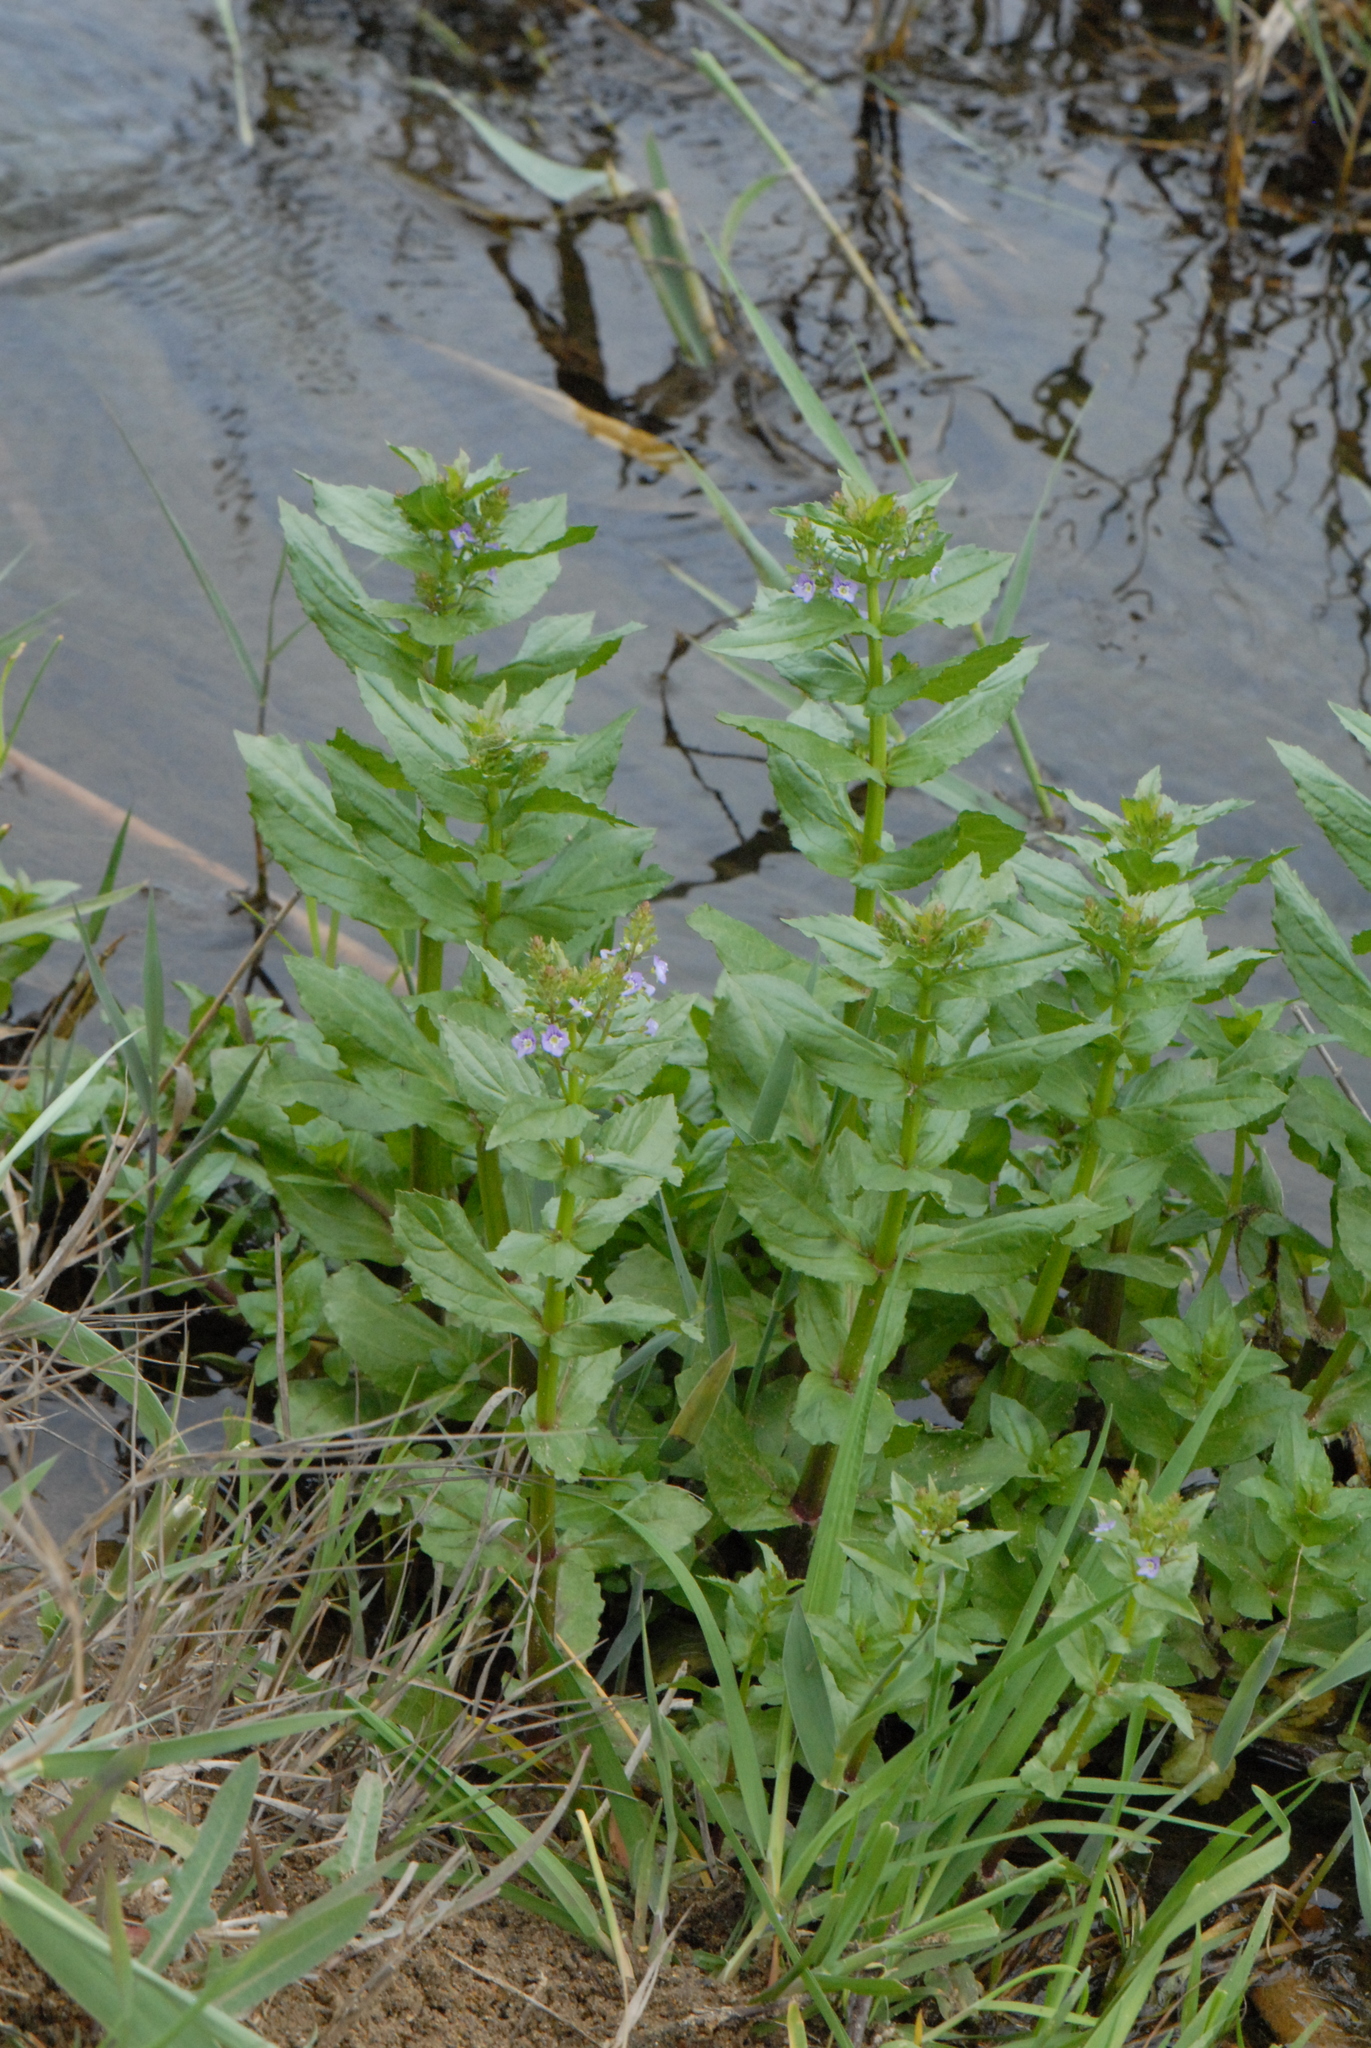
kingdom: Plantae
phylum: Tracheophyta
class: Magnoliopsida
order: Lamiales
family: Plantaginaceae
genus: Veronica
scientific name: Veronica anagallis-aquatica
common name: Water speedwell
